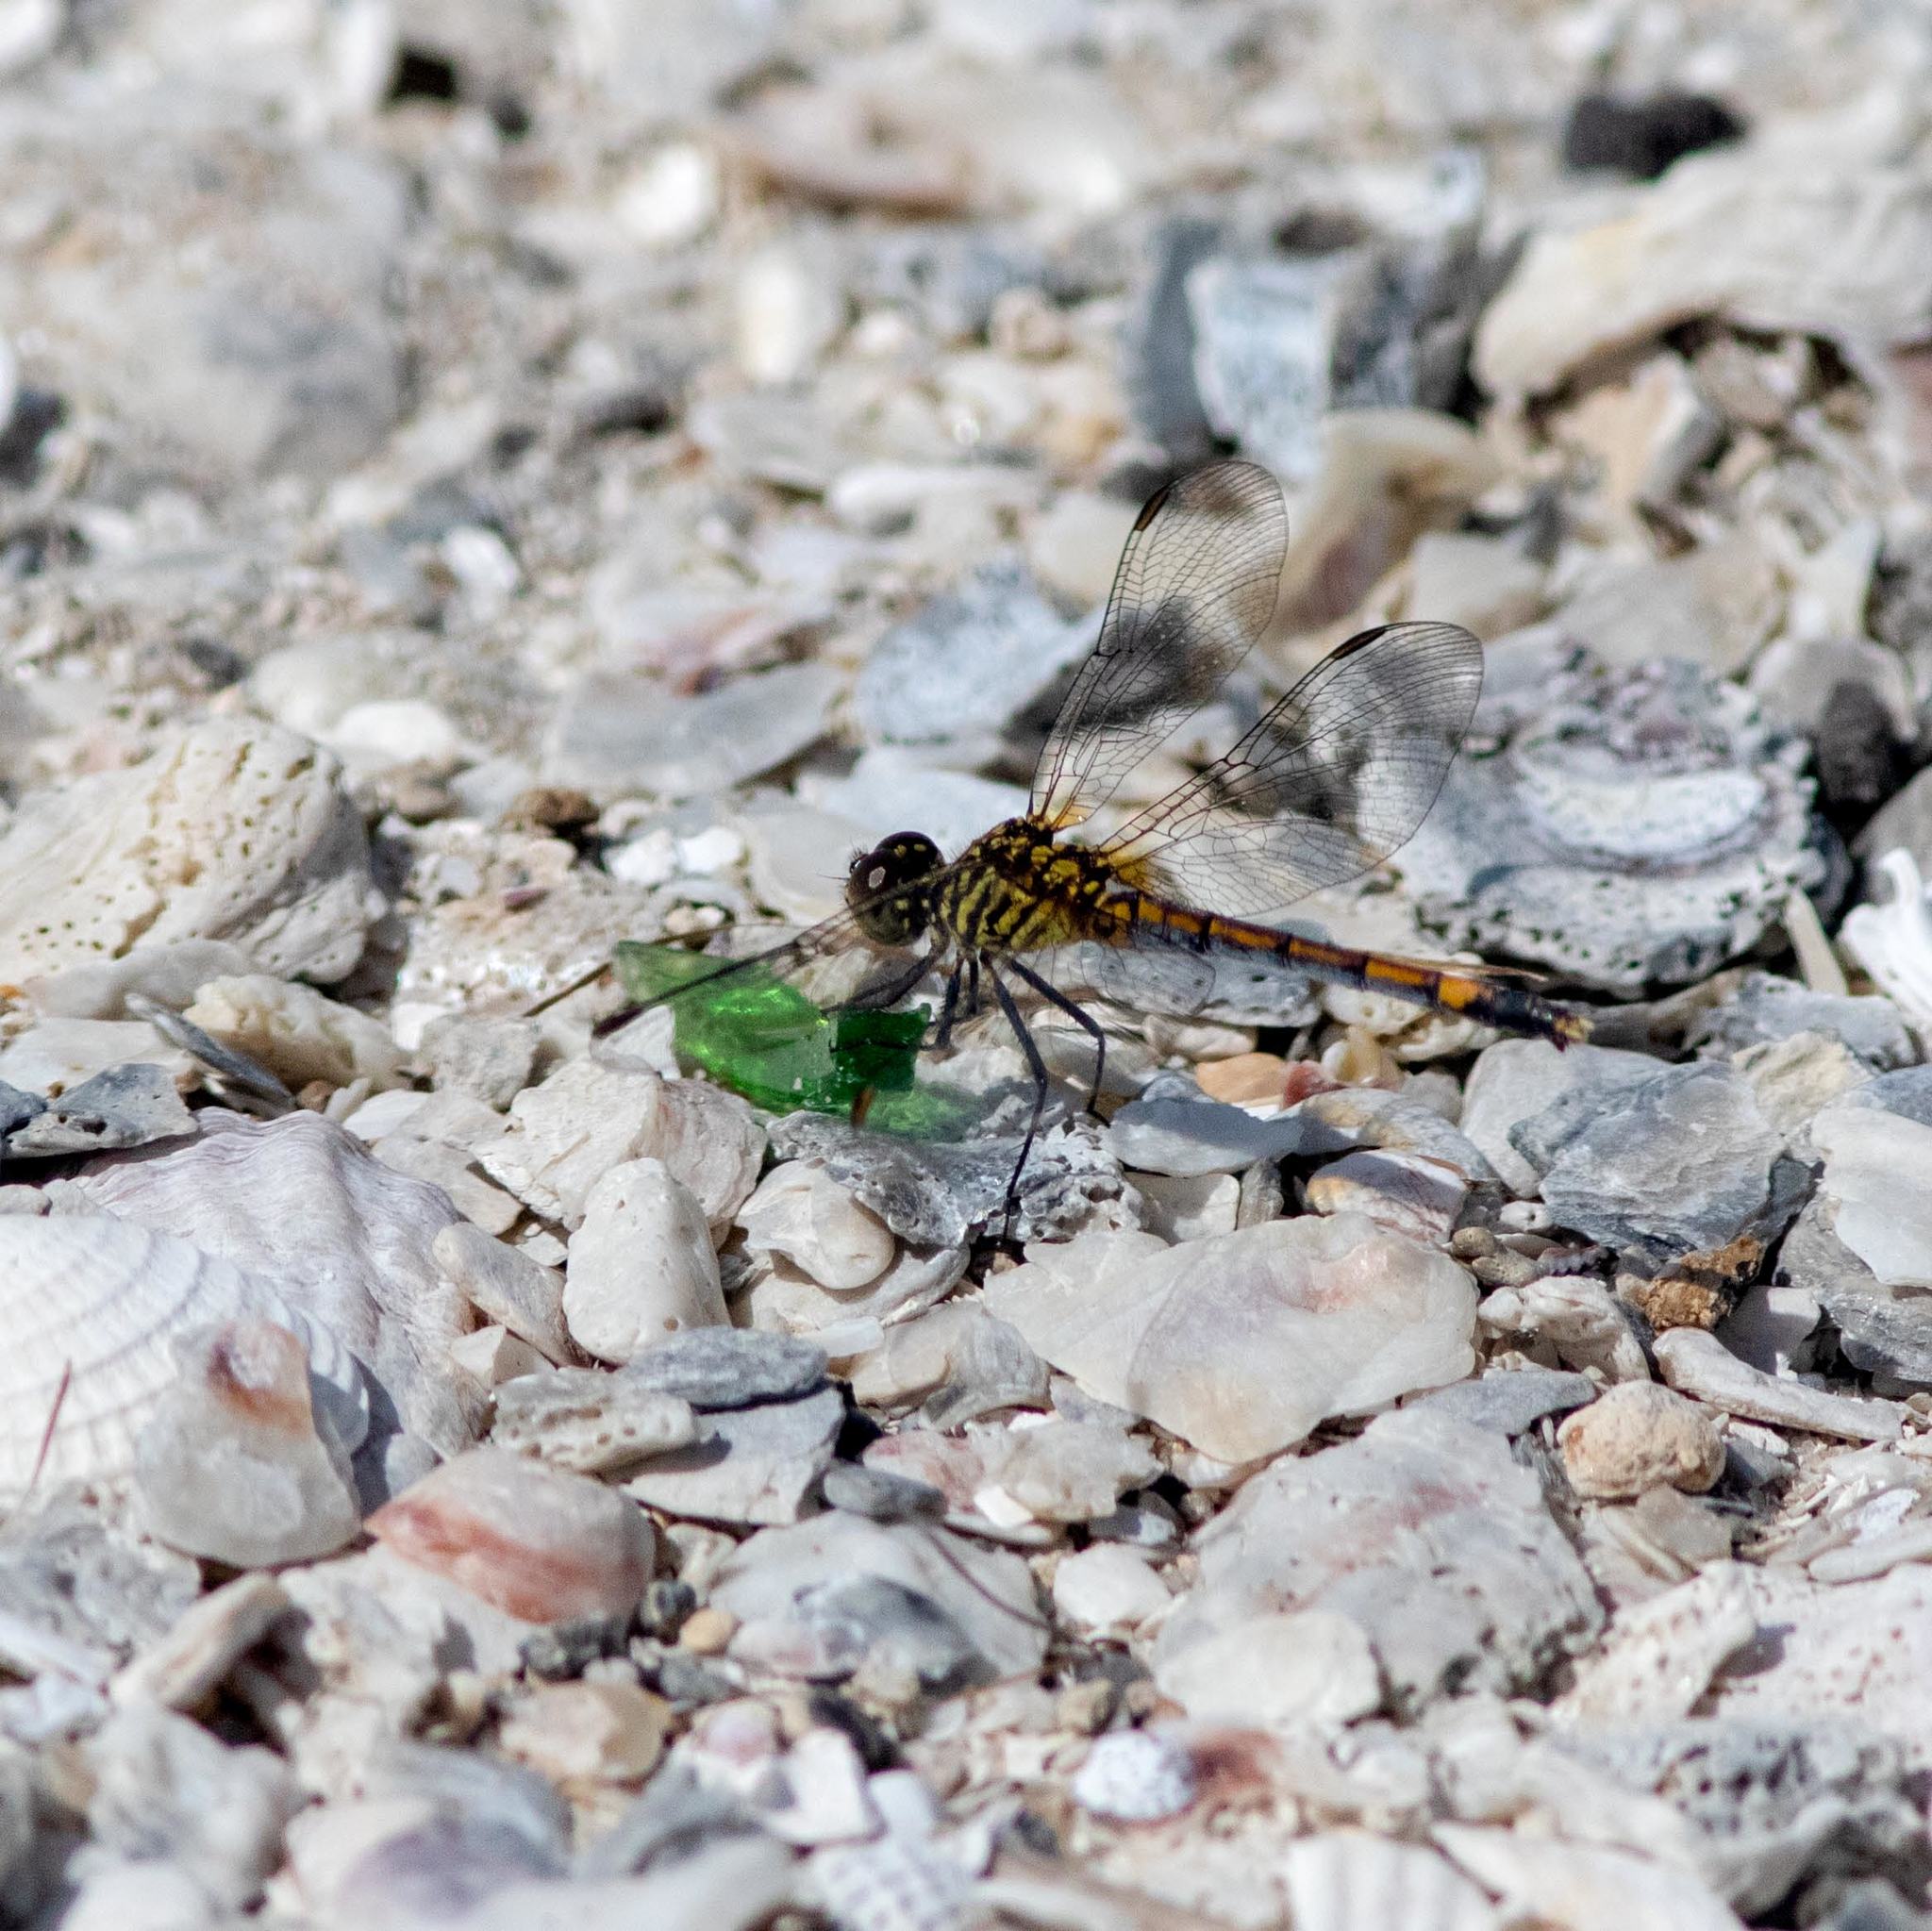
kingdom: Animalia
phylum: Arthropoda
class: Insecta
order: Odonata
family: Libellulidae
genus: Erythrodiplax
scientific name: Erythrodiplax berenice
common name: Seaside dragonlet
